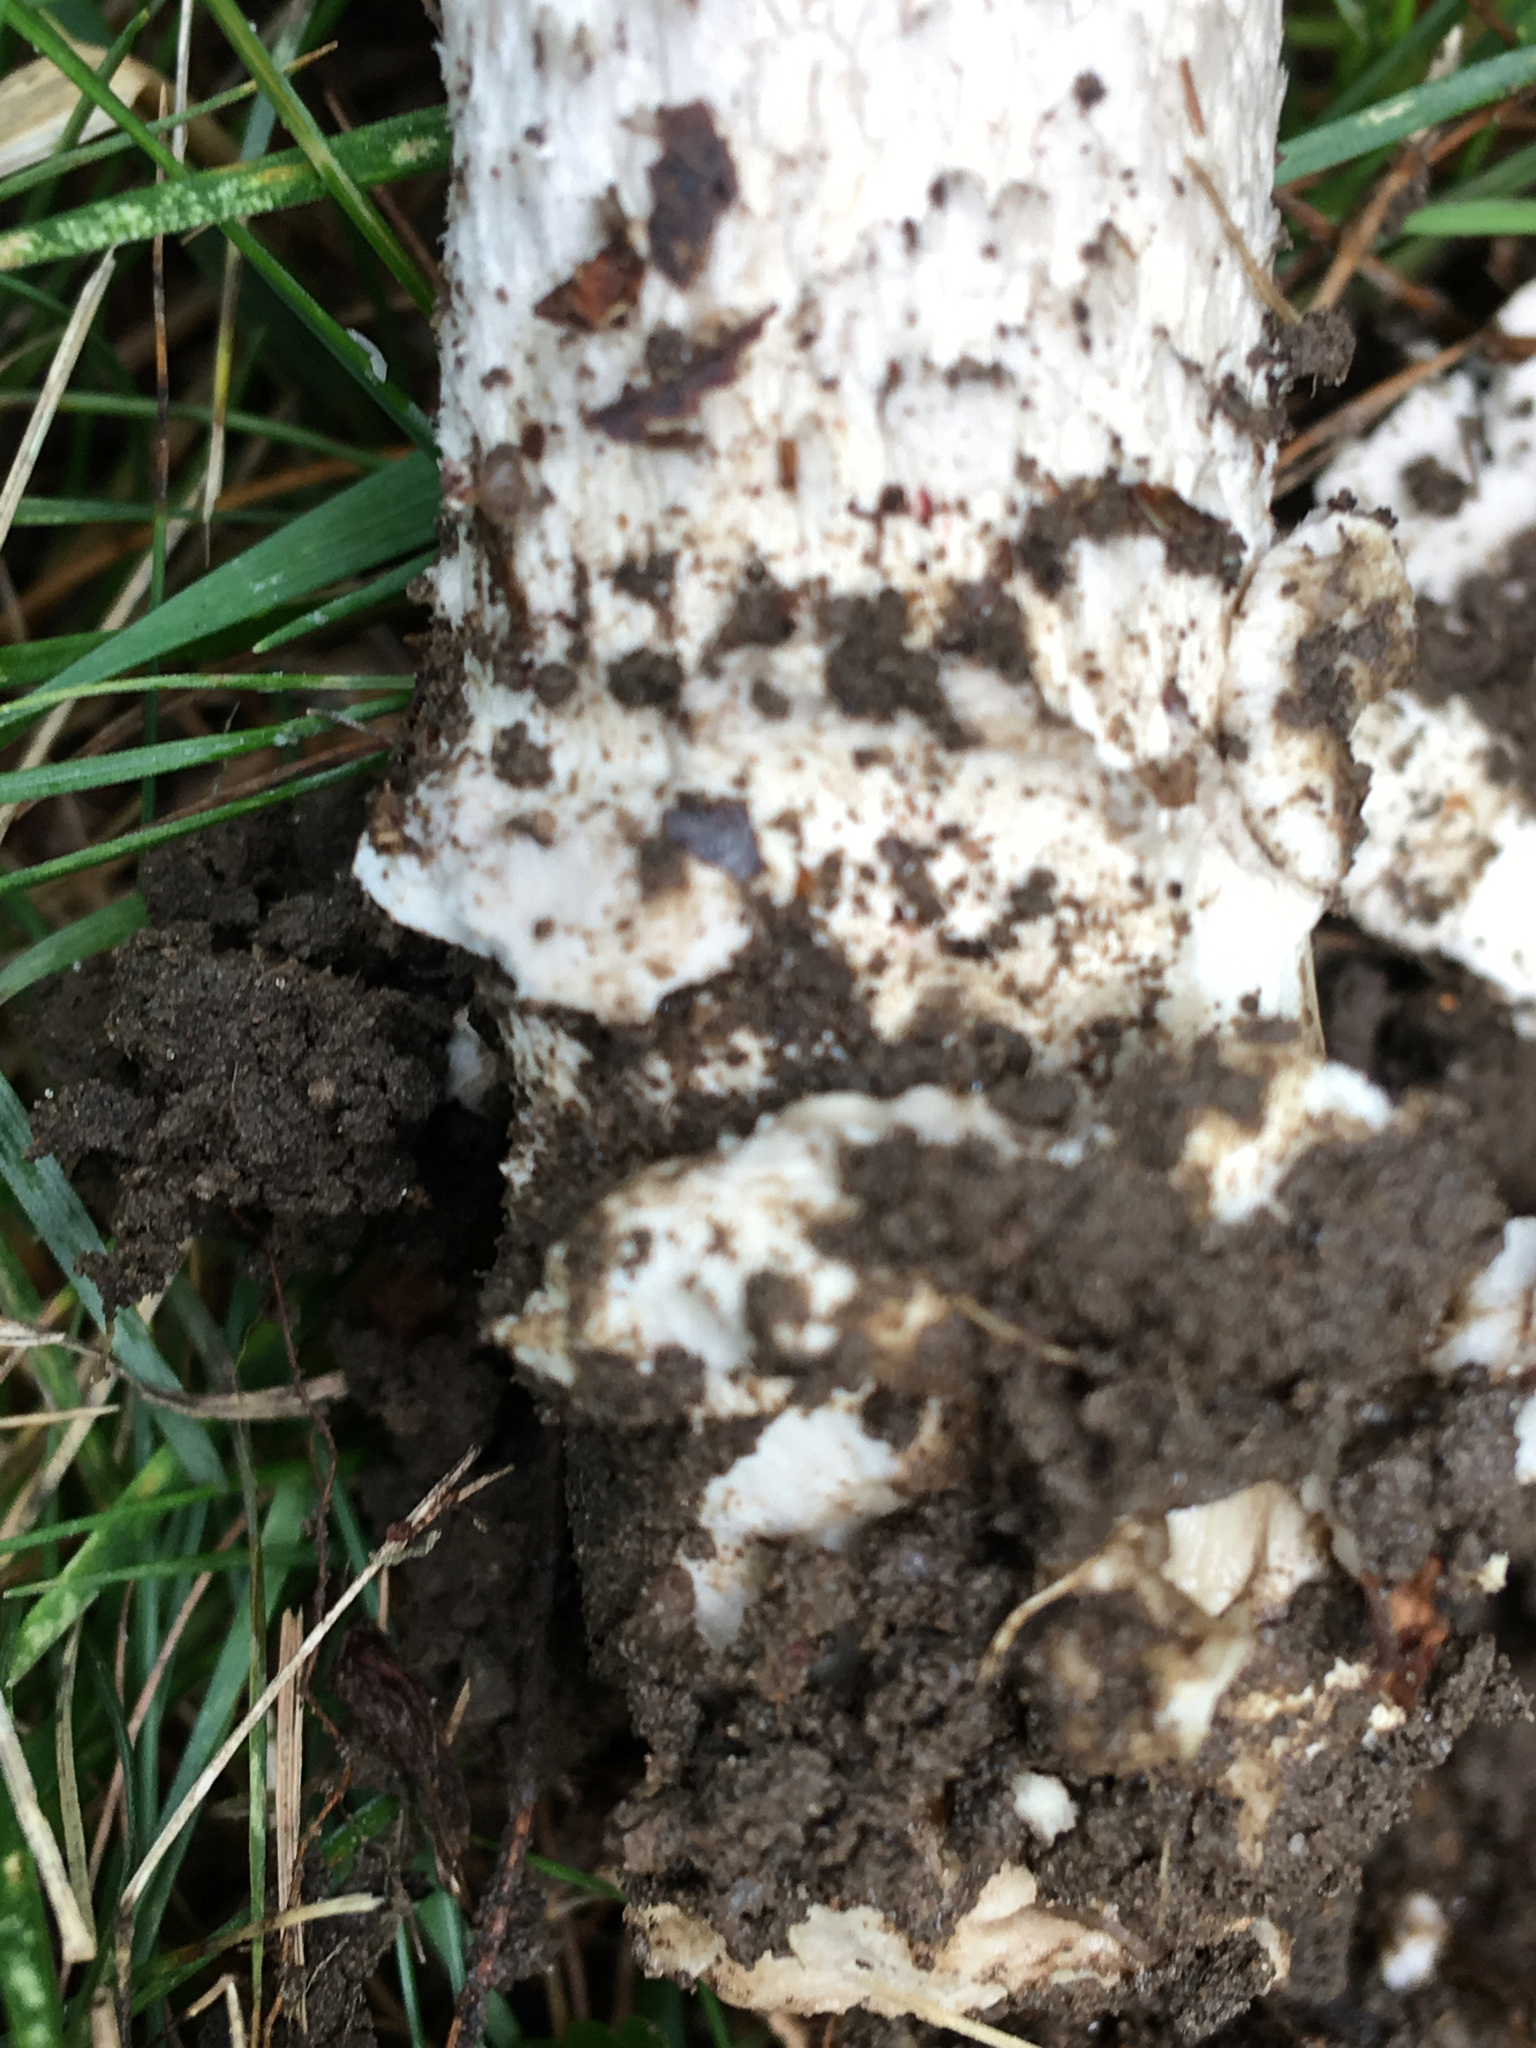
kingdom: Fungi
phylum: Basidiomycota
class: Agaricomycetes
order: Agaricales
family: Amanitaceae
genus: Amanita
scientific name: Amanita spreta
